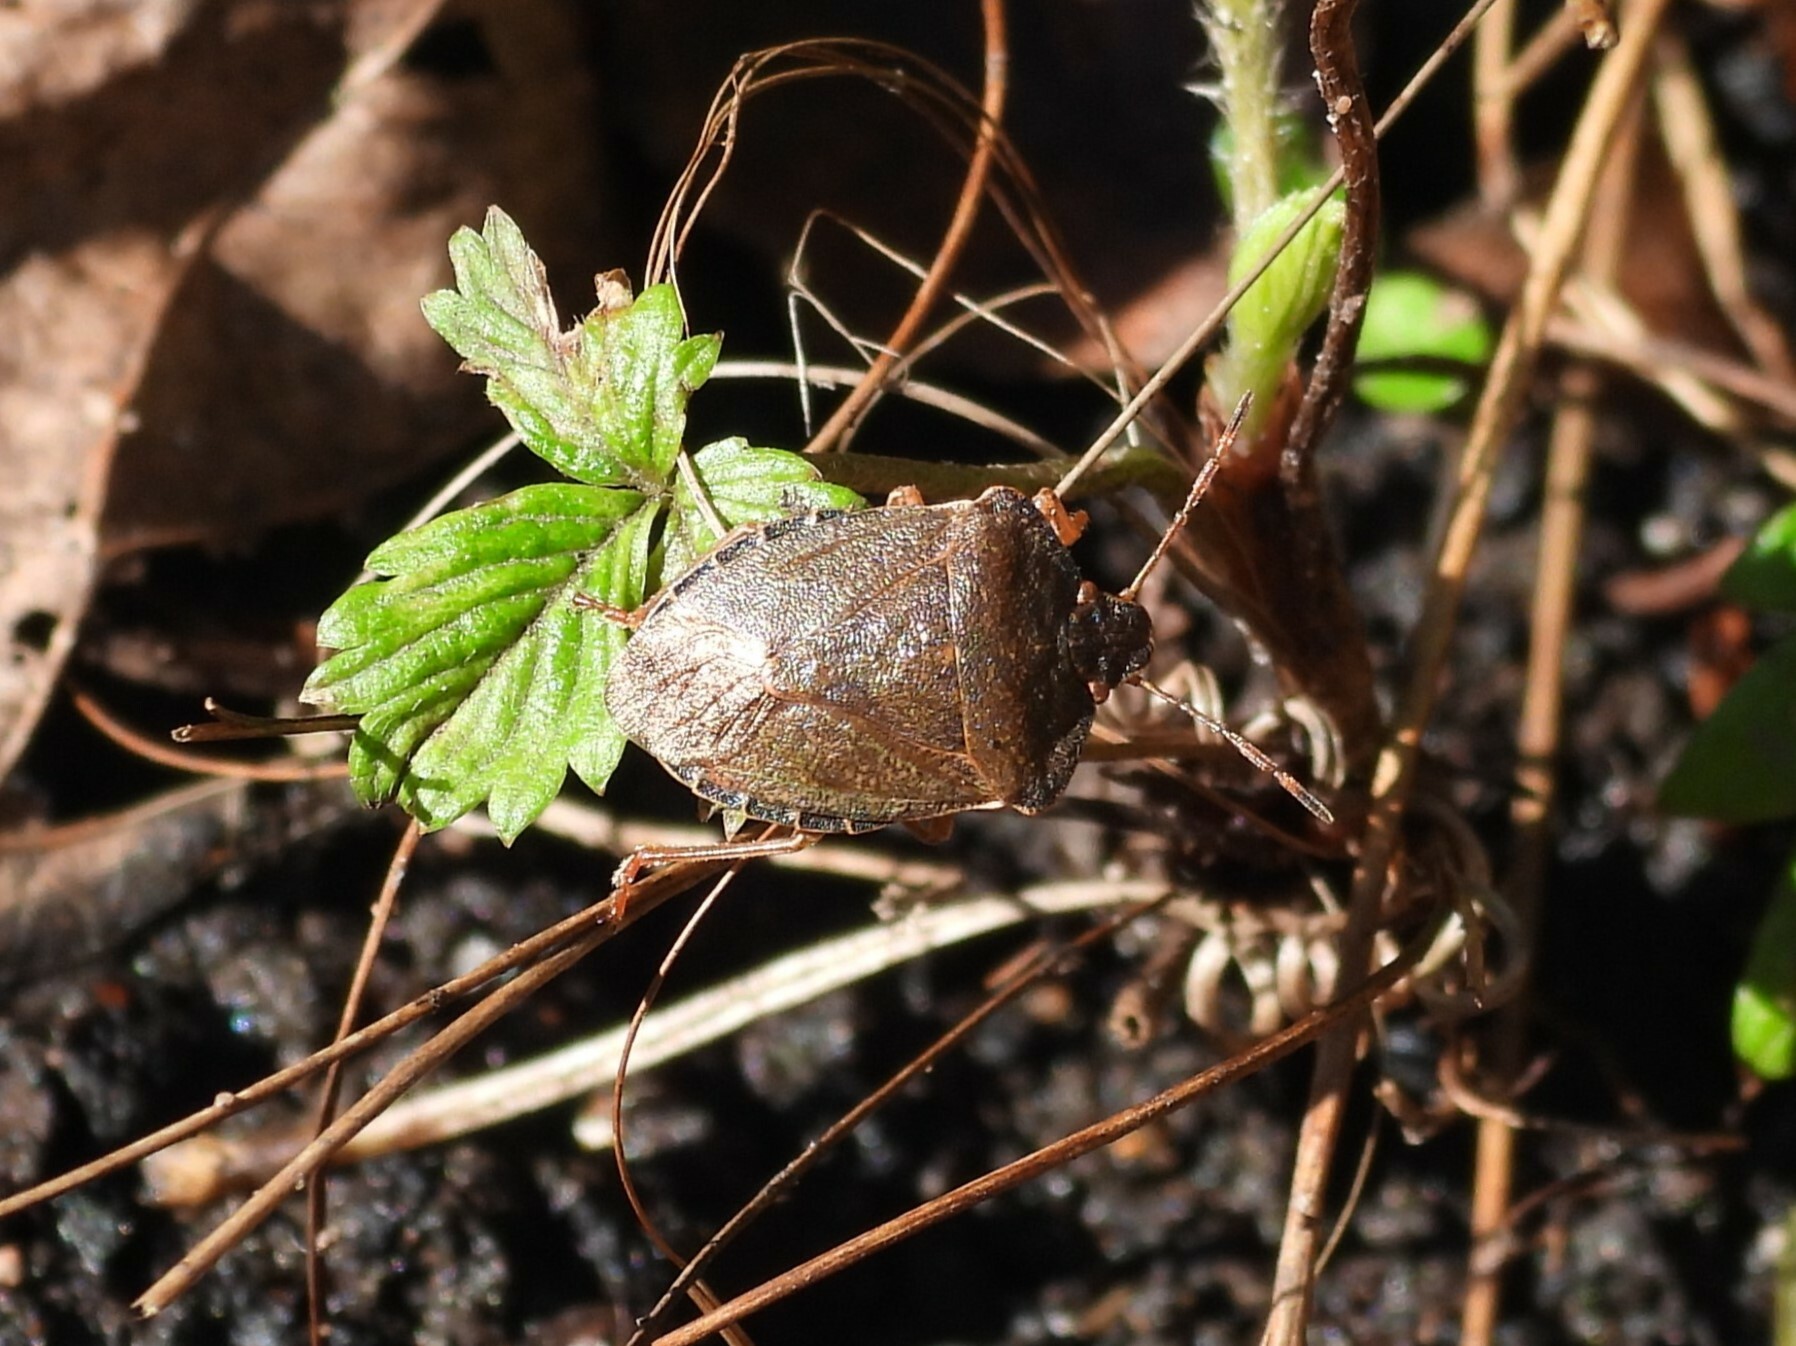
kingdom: Animalia
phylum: Arthropoda
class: Insecta
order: Hemiptera
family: Pentatomidae
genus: Palomena
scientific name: Palomena prasina
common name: Green shieldbug
